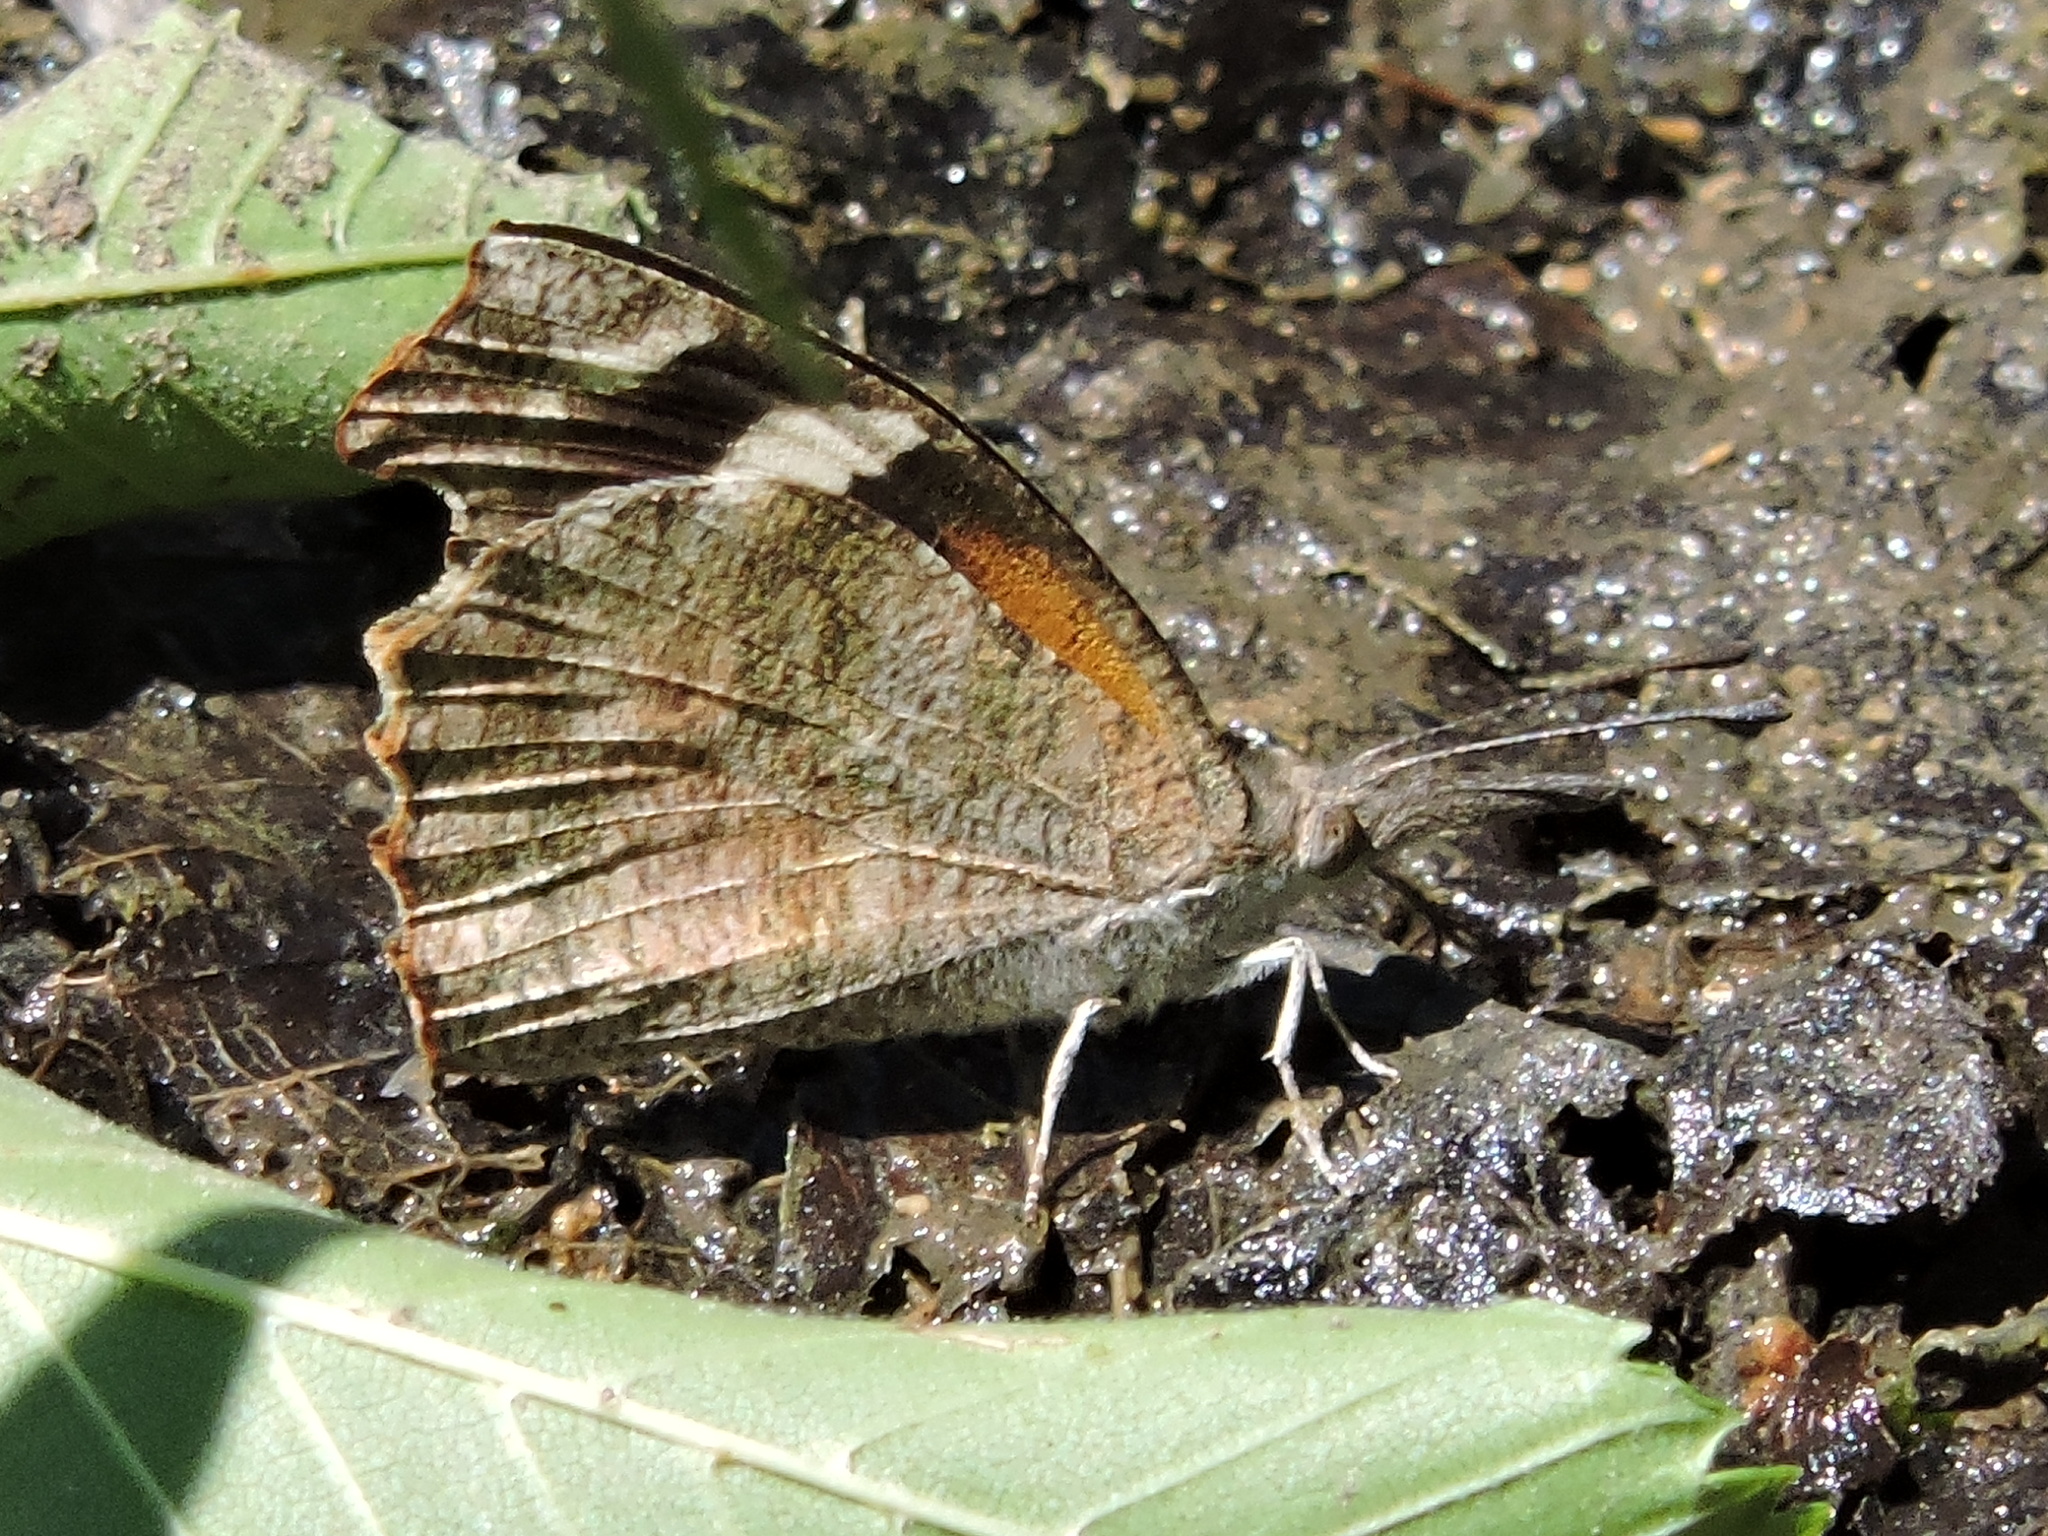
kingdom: Animalia
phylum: Arthropoda
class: Insecta
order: Lepidoptera
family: Nymphalidae
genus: Libytheana
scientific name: Libytheana carinenta
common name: American snout
